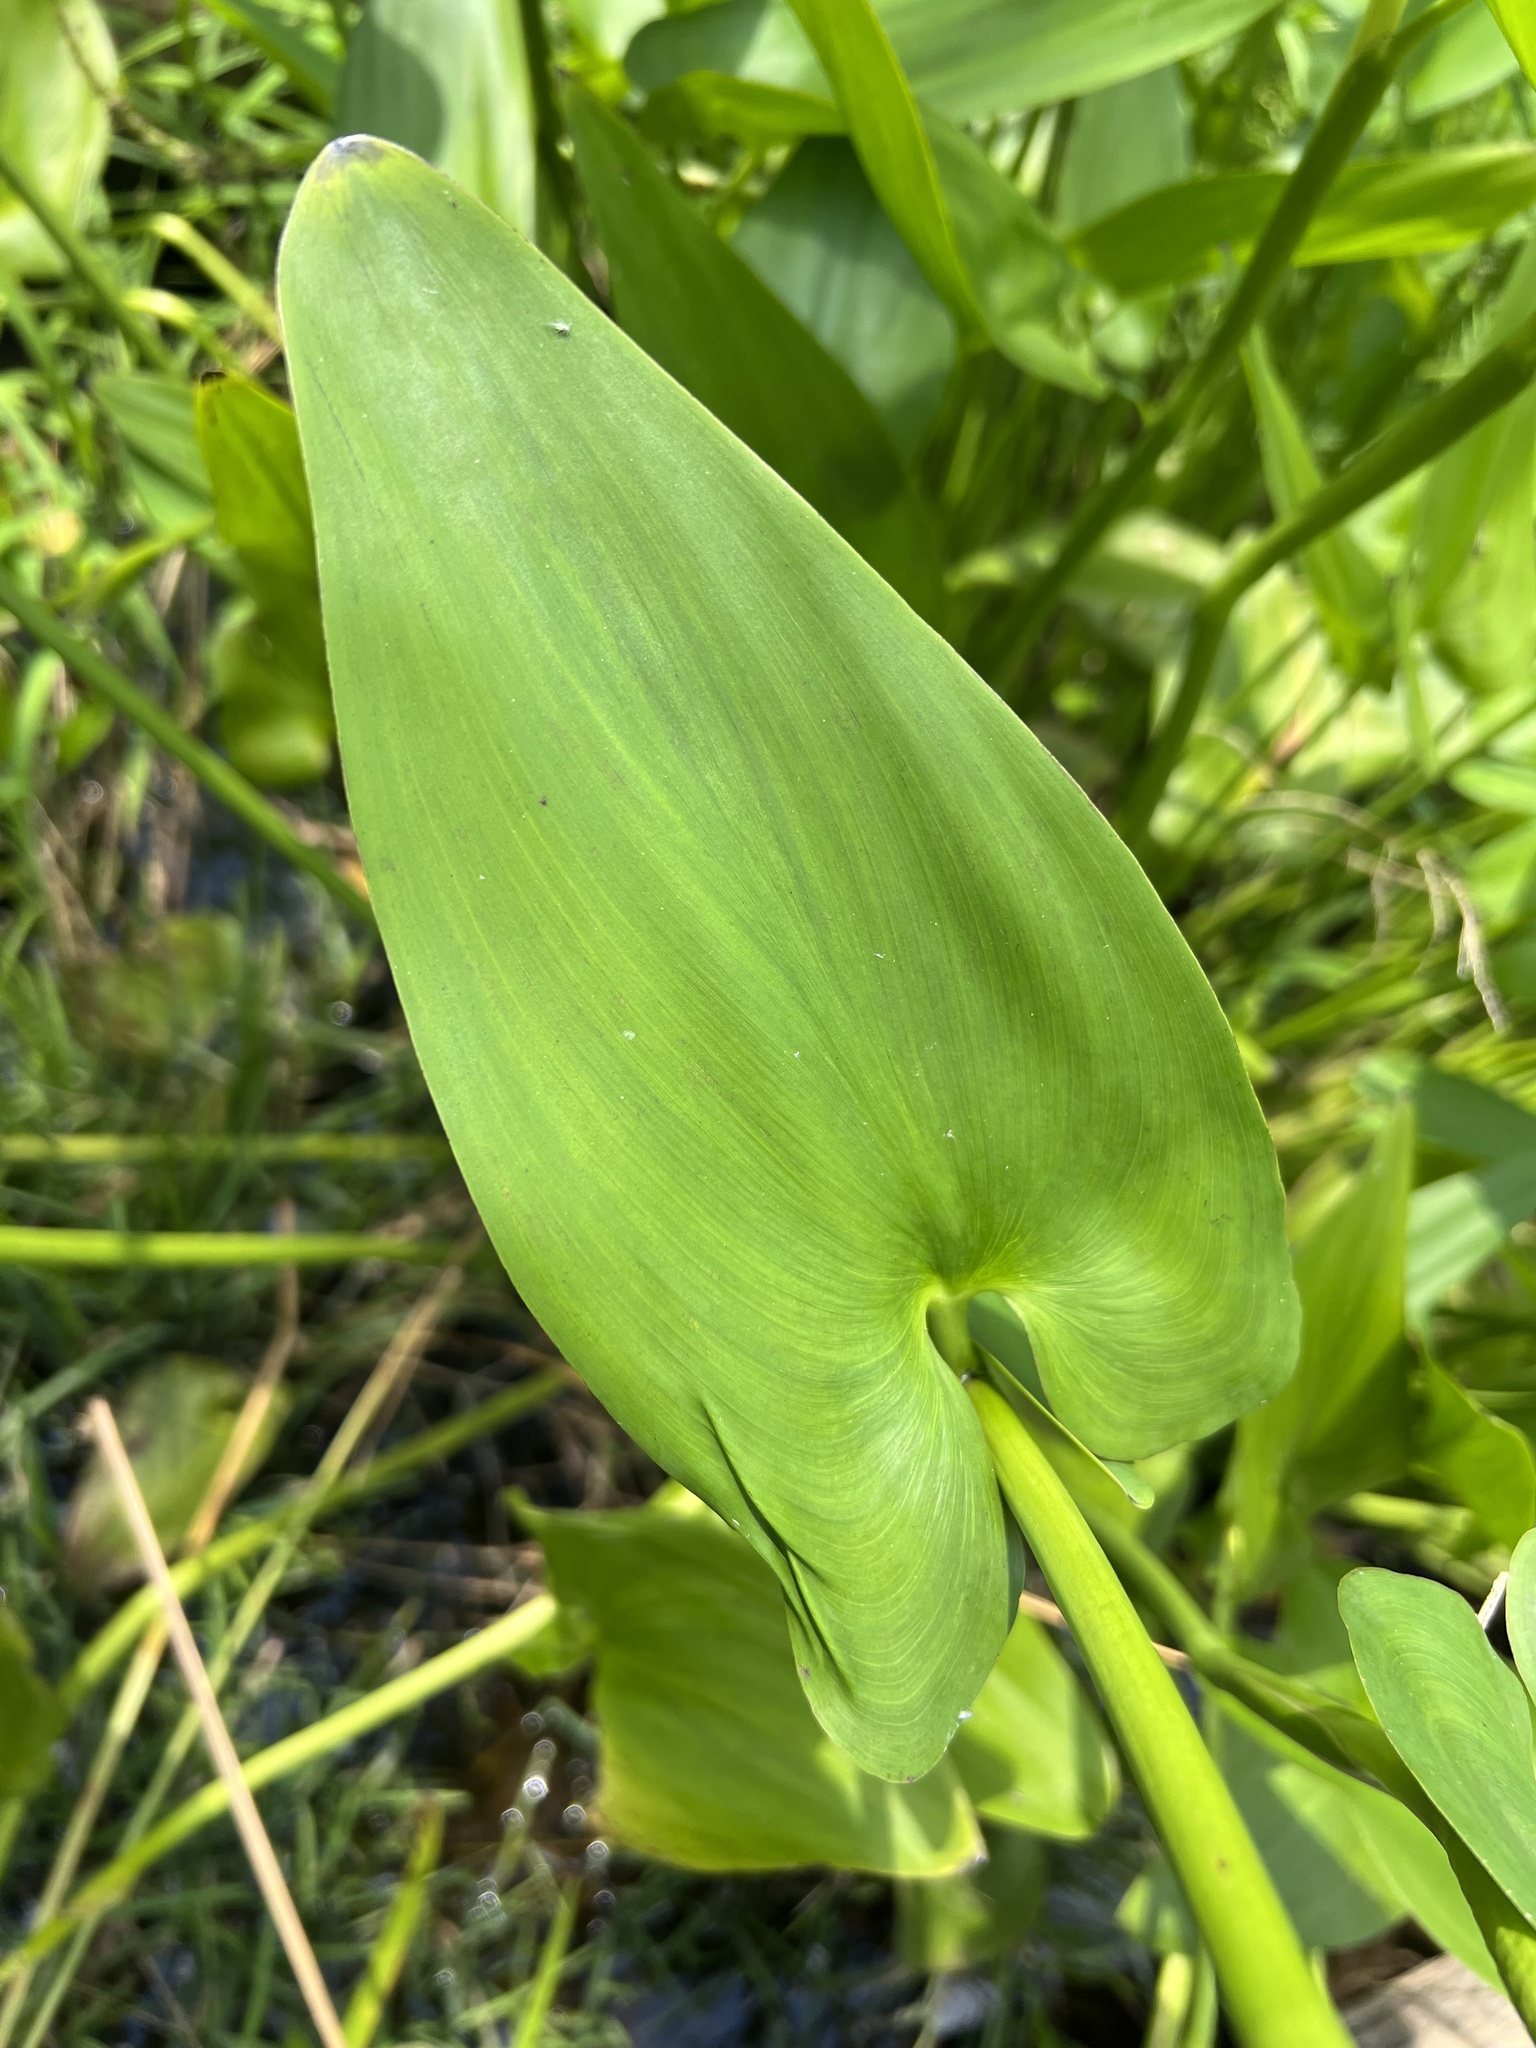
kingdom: Plantae
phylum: Tracheophyta
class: Liliopsida
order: Commelinales
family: Pontederiaceae
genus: Pontederia
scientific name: Pontederia cordata
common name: Pickerelweed
